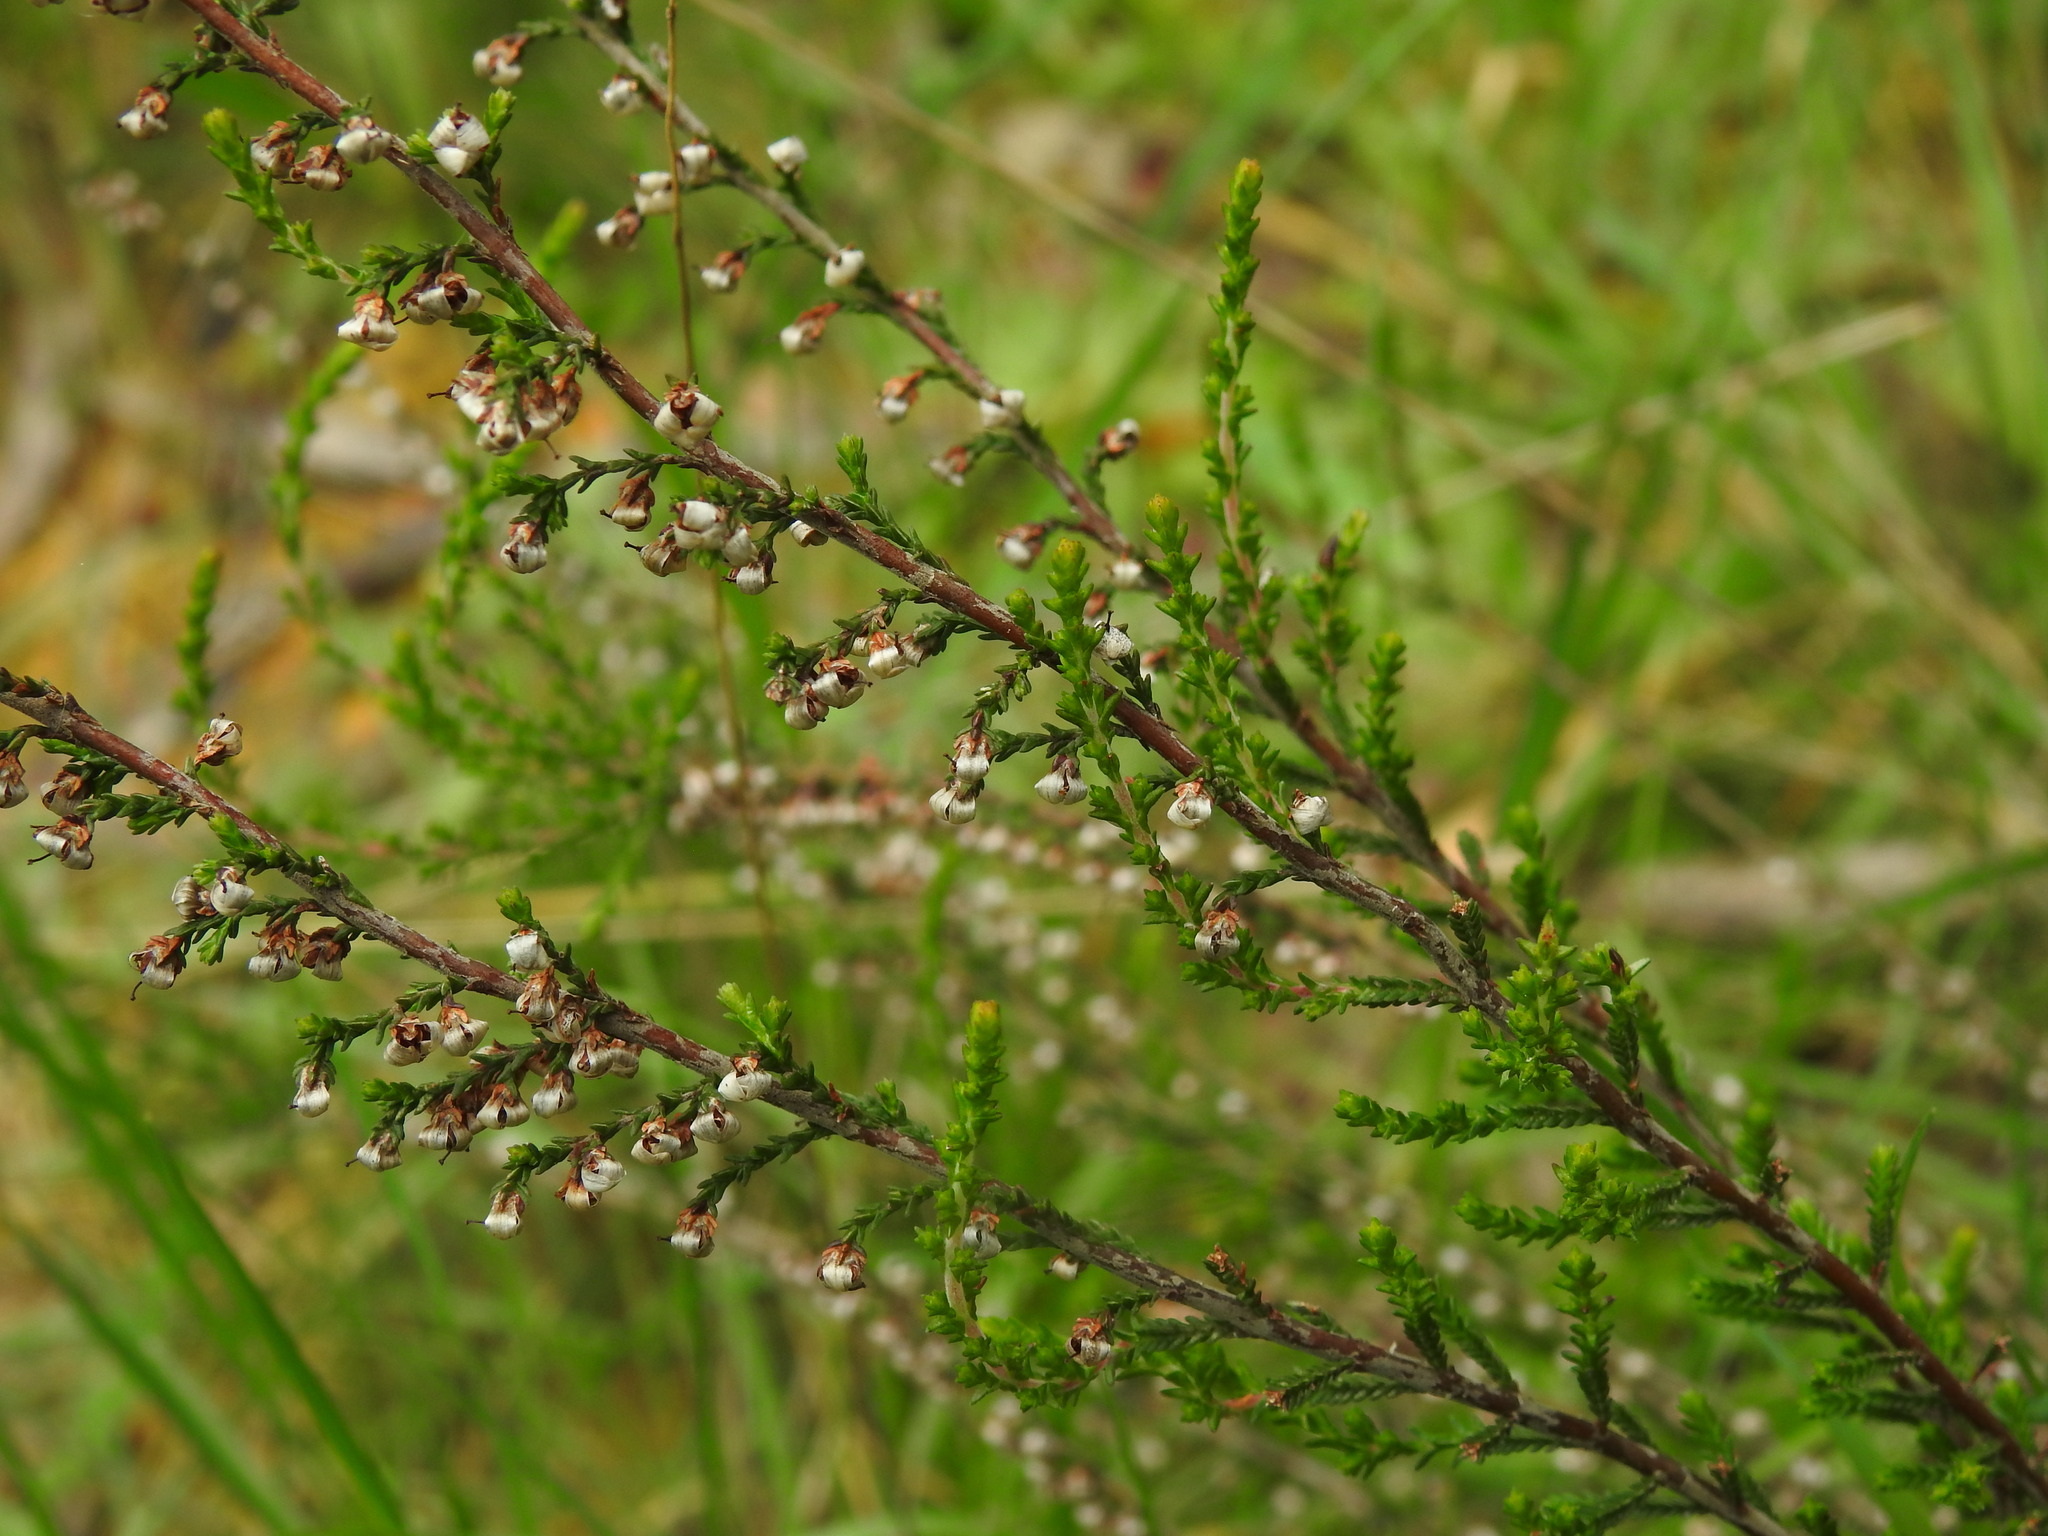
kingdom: Plantae
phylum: Tracheophyta
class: Magnoliopsida
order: Ericales
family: Ericaceae
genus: Calluna
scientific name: Calluna vulgaris
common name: Heather
